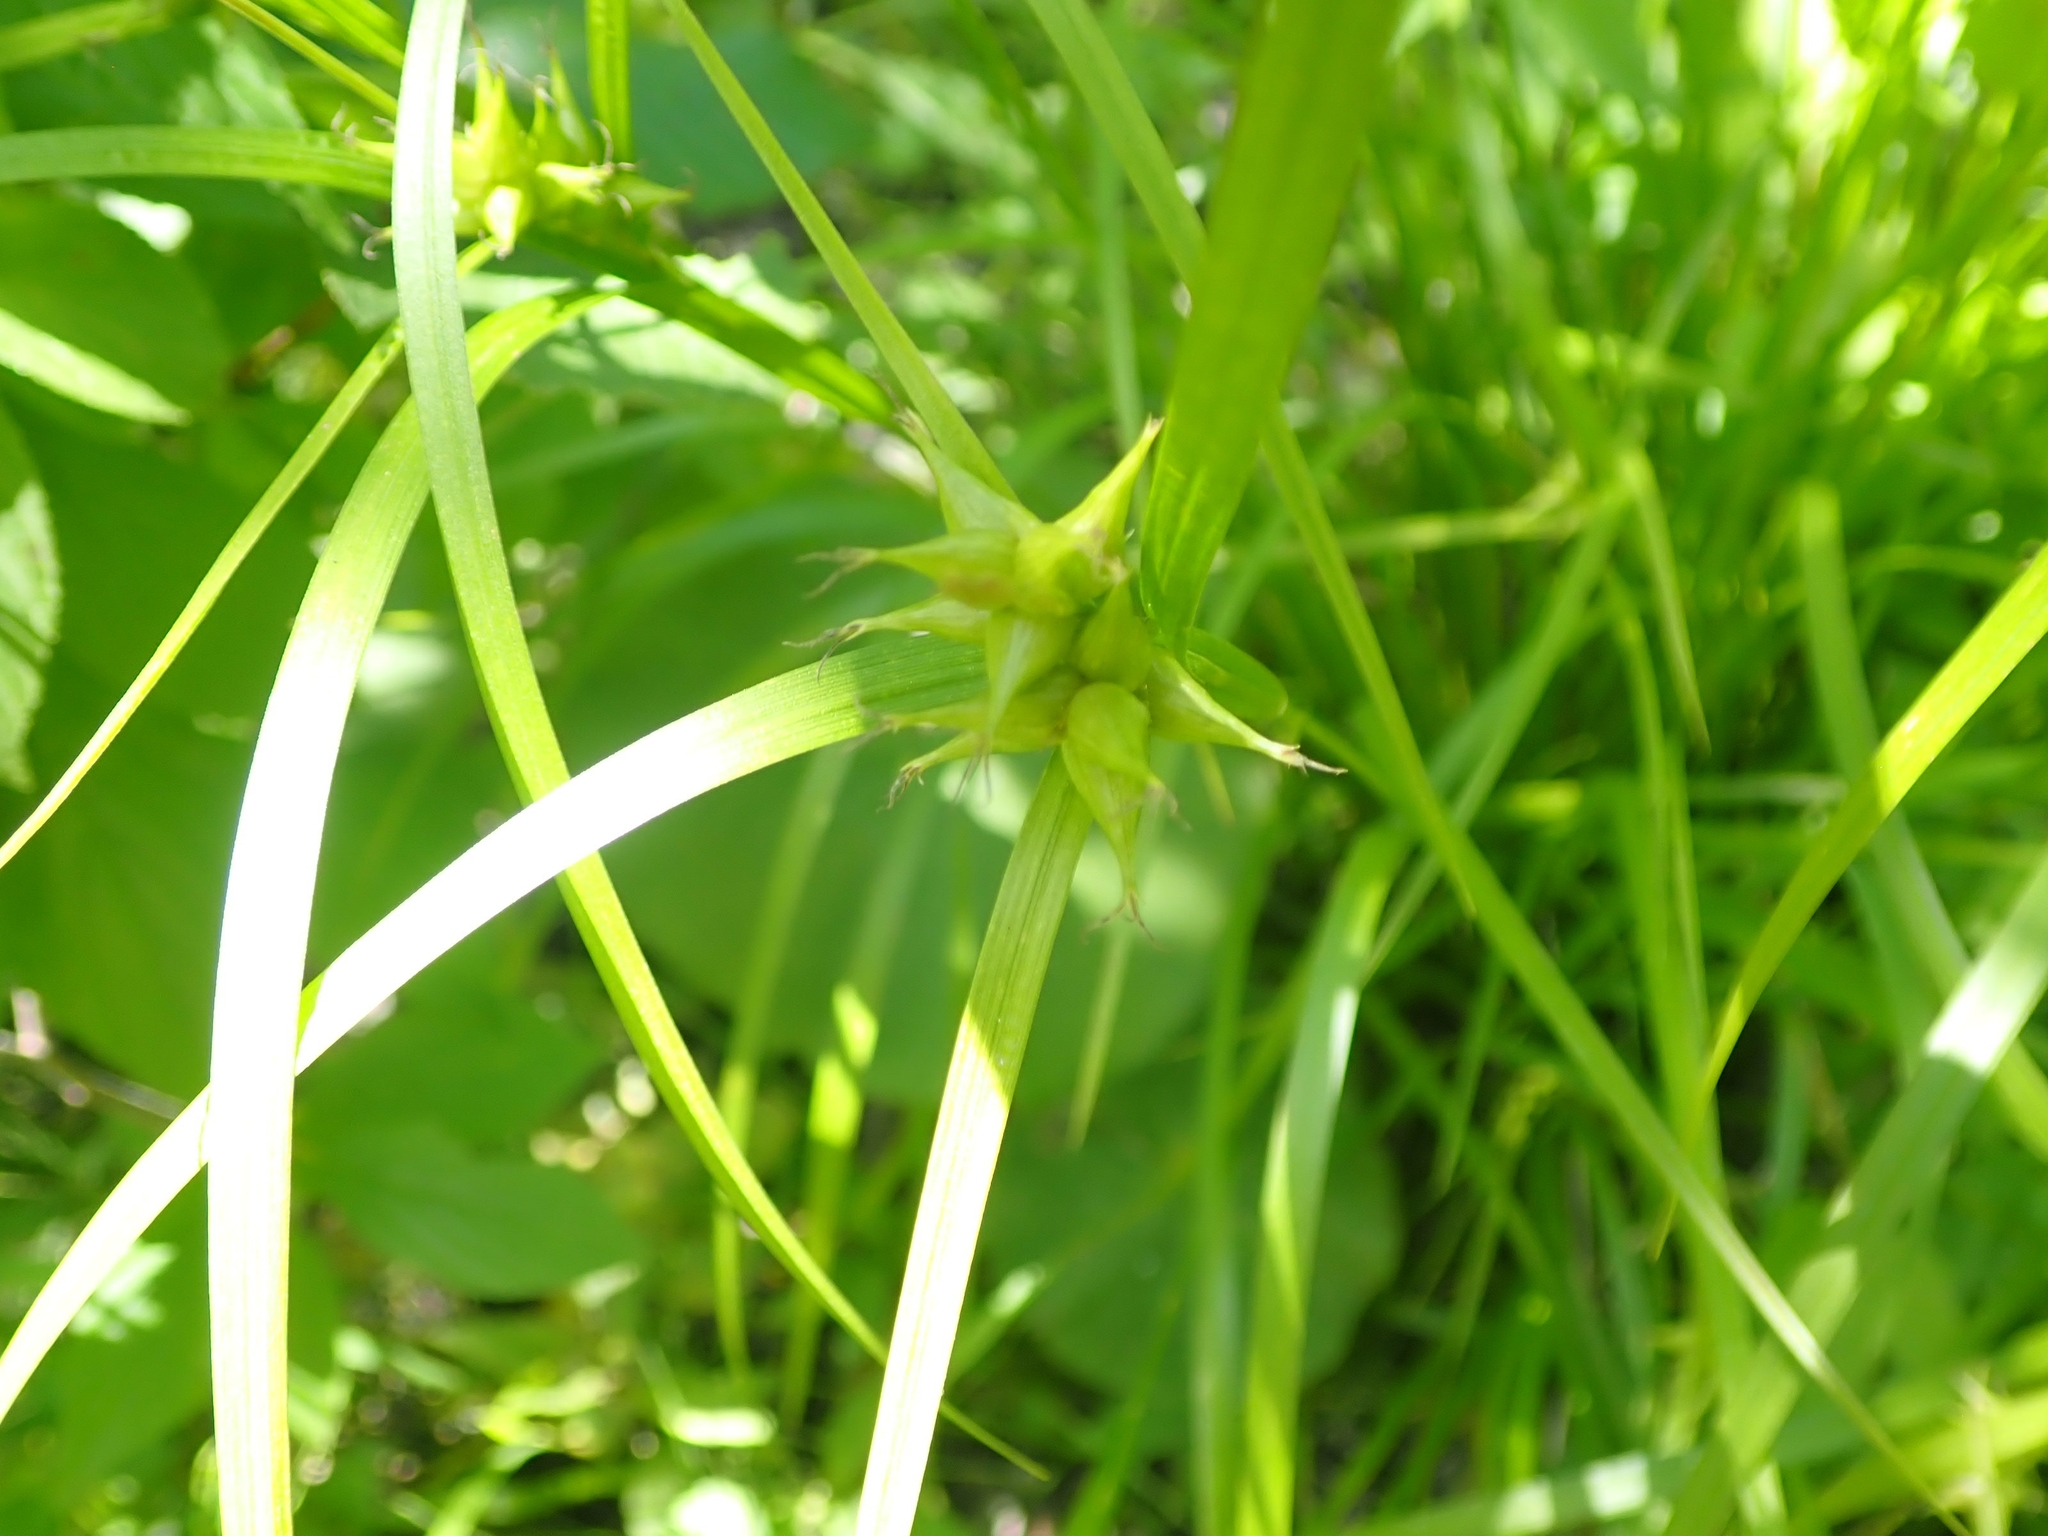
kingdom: Plantae
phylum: Tracheophyta
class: Liliopsida
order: Poales
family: Cyperaceae
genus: Carex
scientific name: Carex intumescens
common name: Greater bladder sedge
